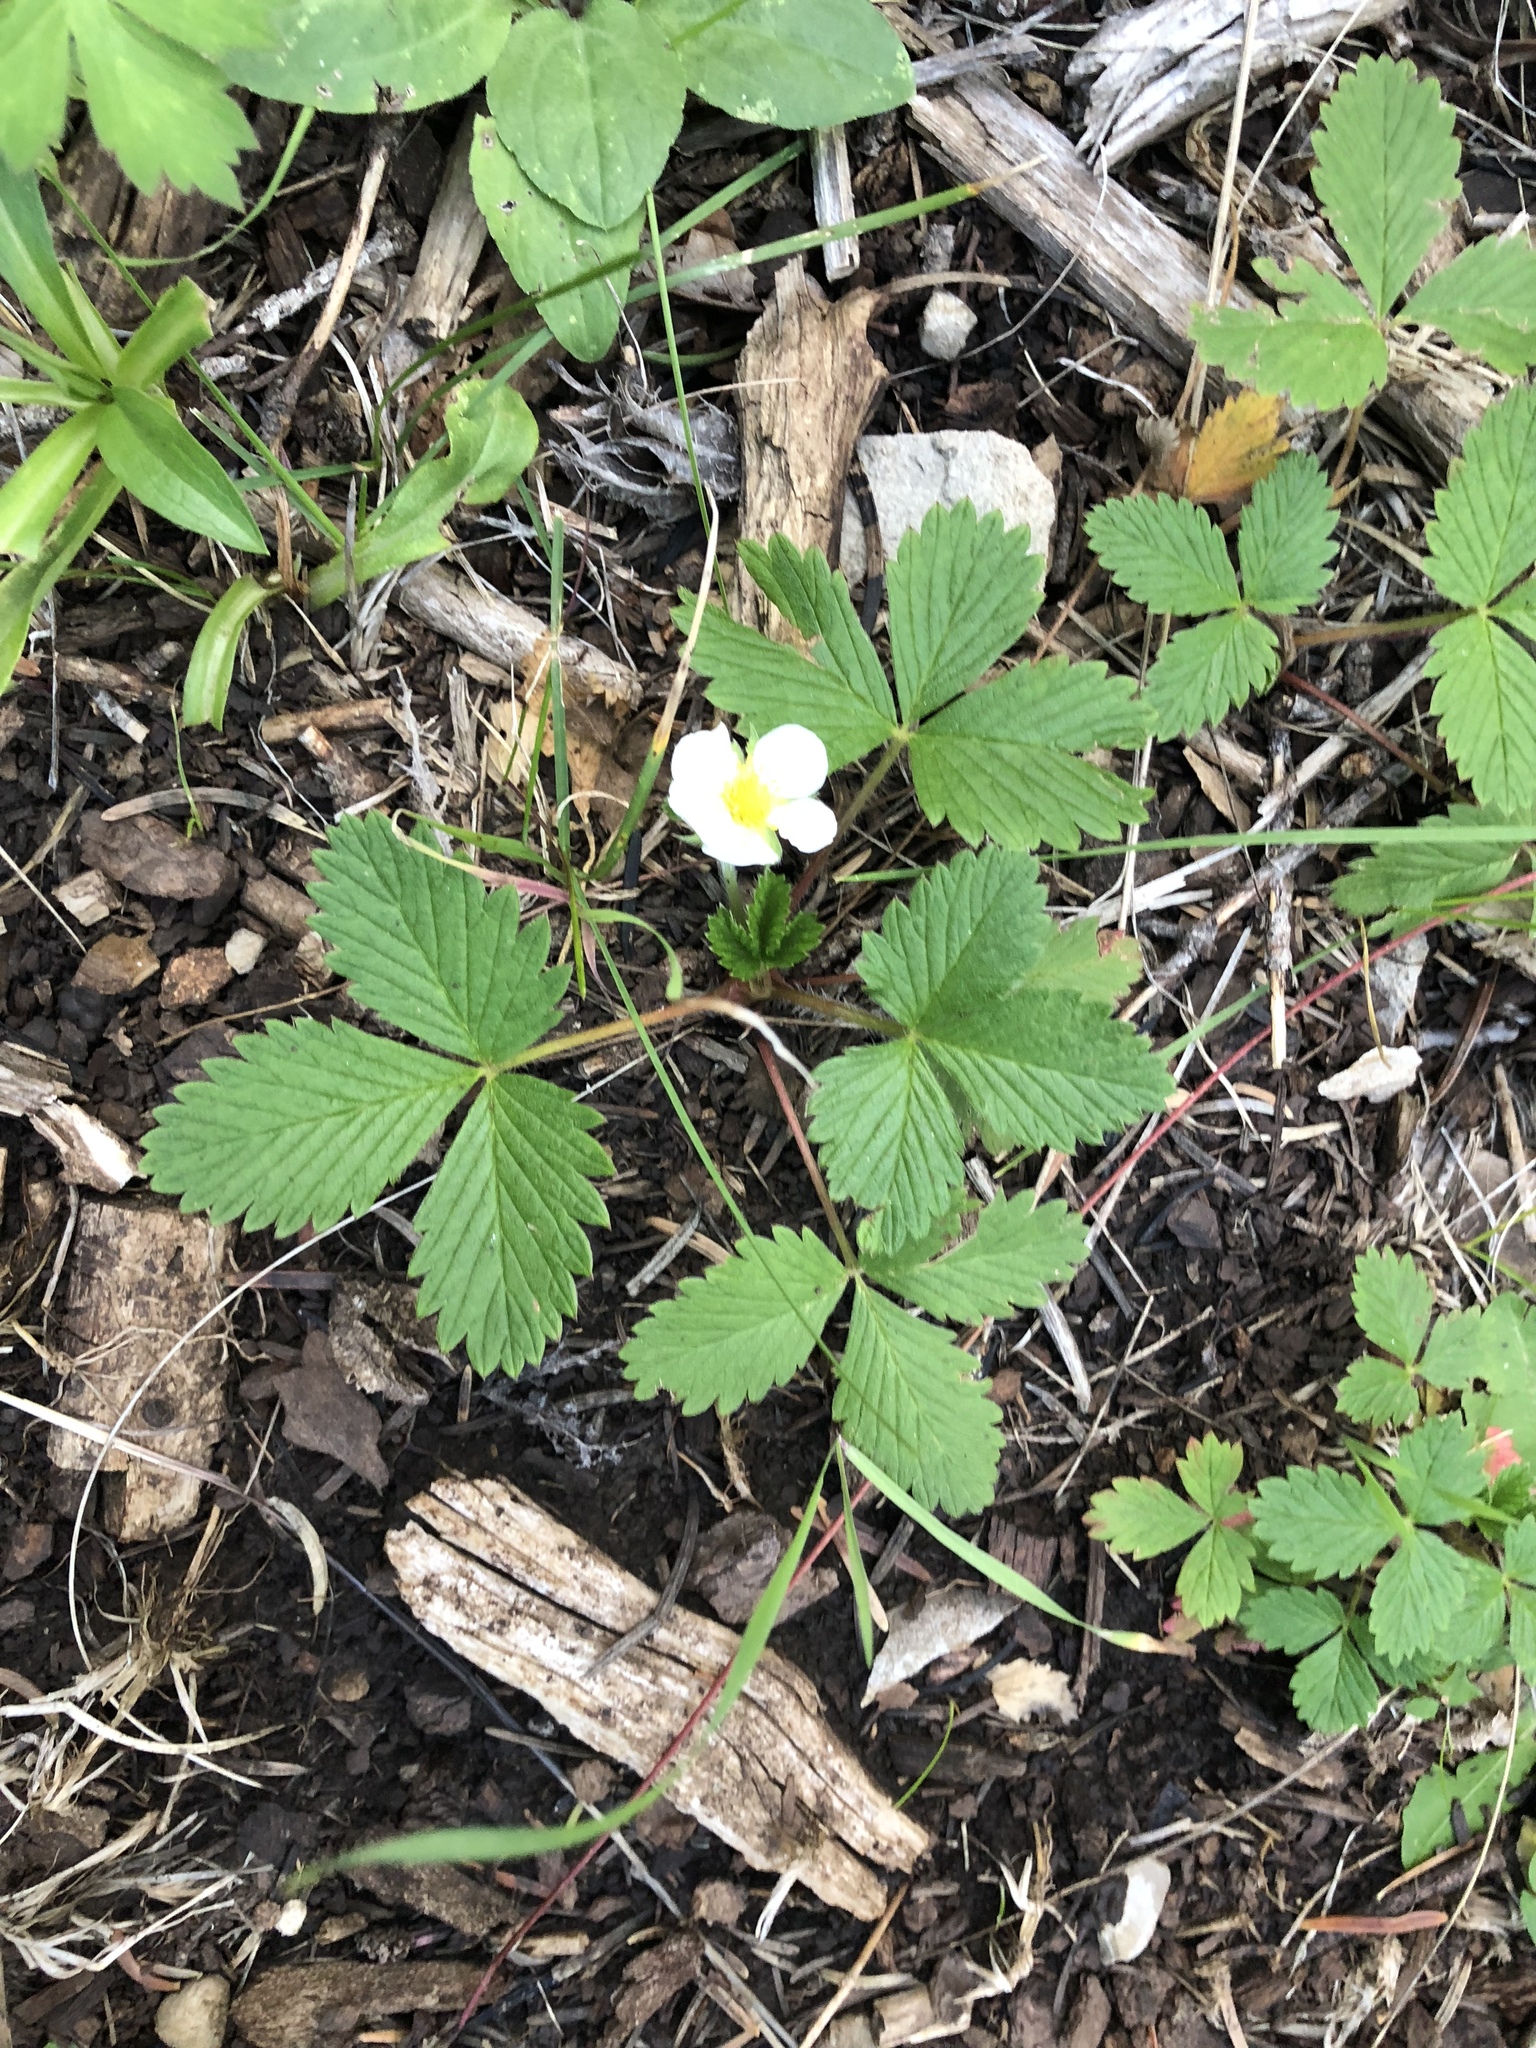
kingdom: Plantae
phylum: Tracheophyta
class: Magnoliopsida
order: Rosales
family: Rosaceae
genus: Fragaria
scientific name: Fragaria vesca
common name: Wild strawberry
